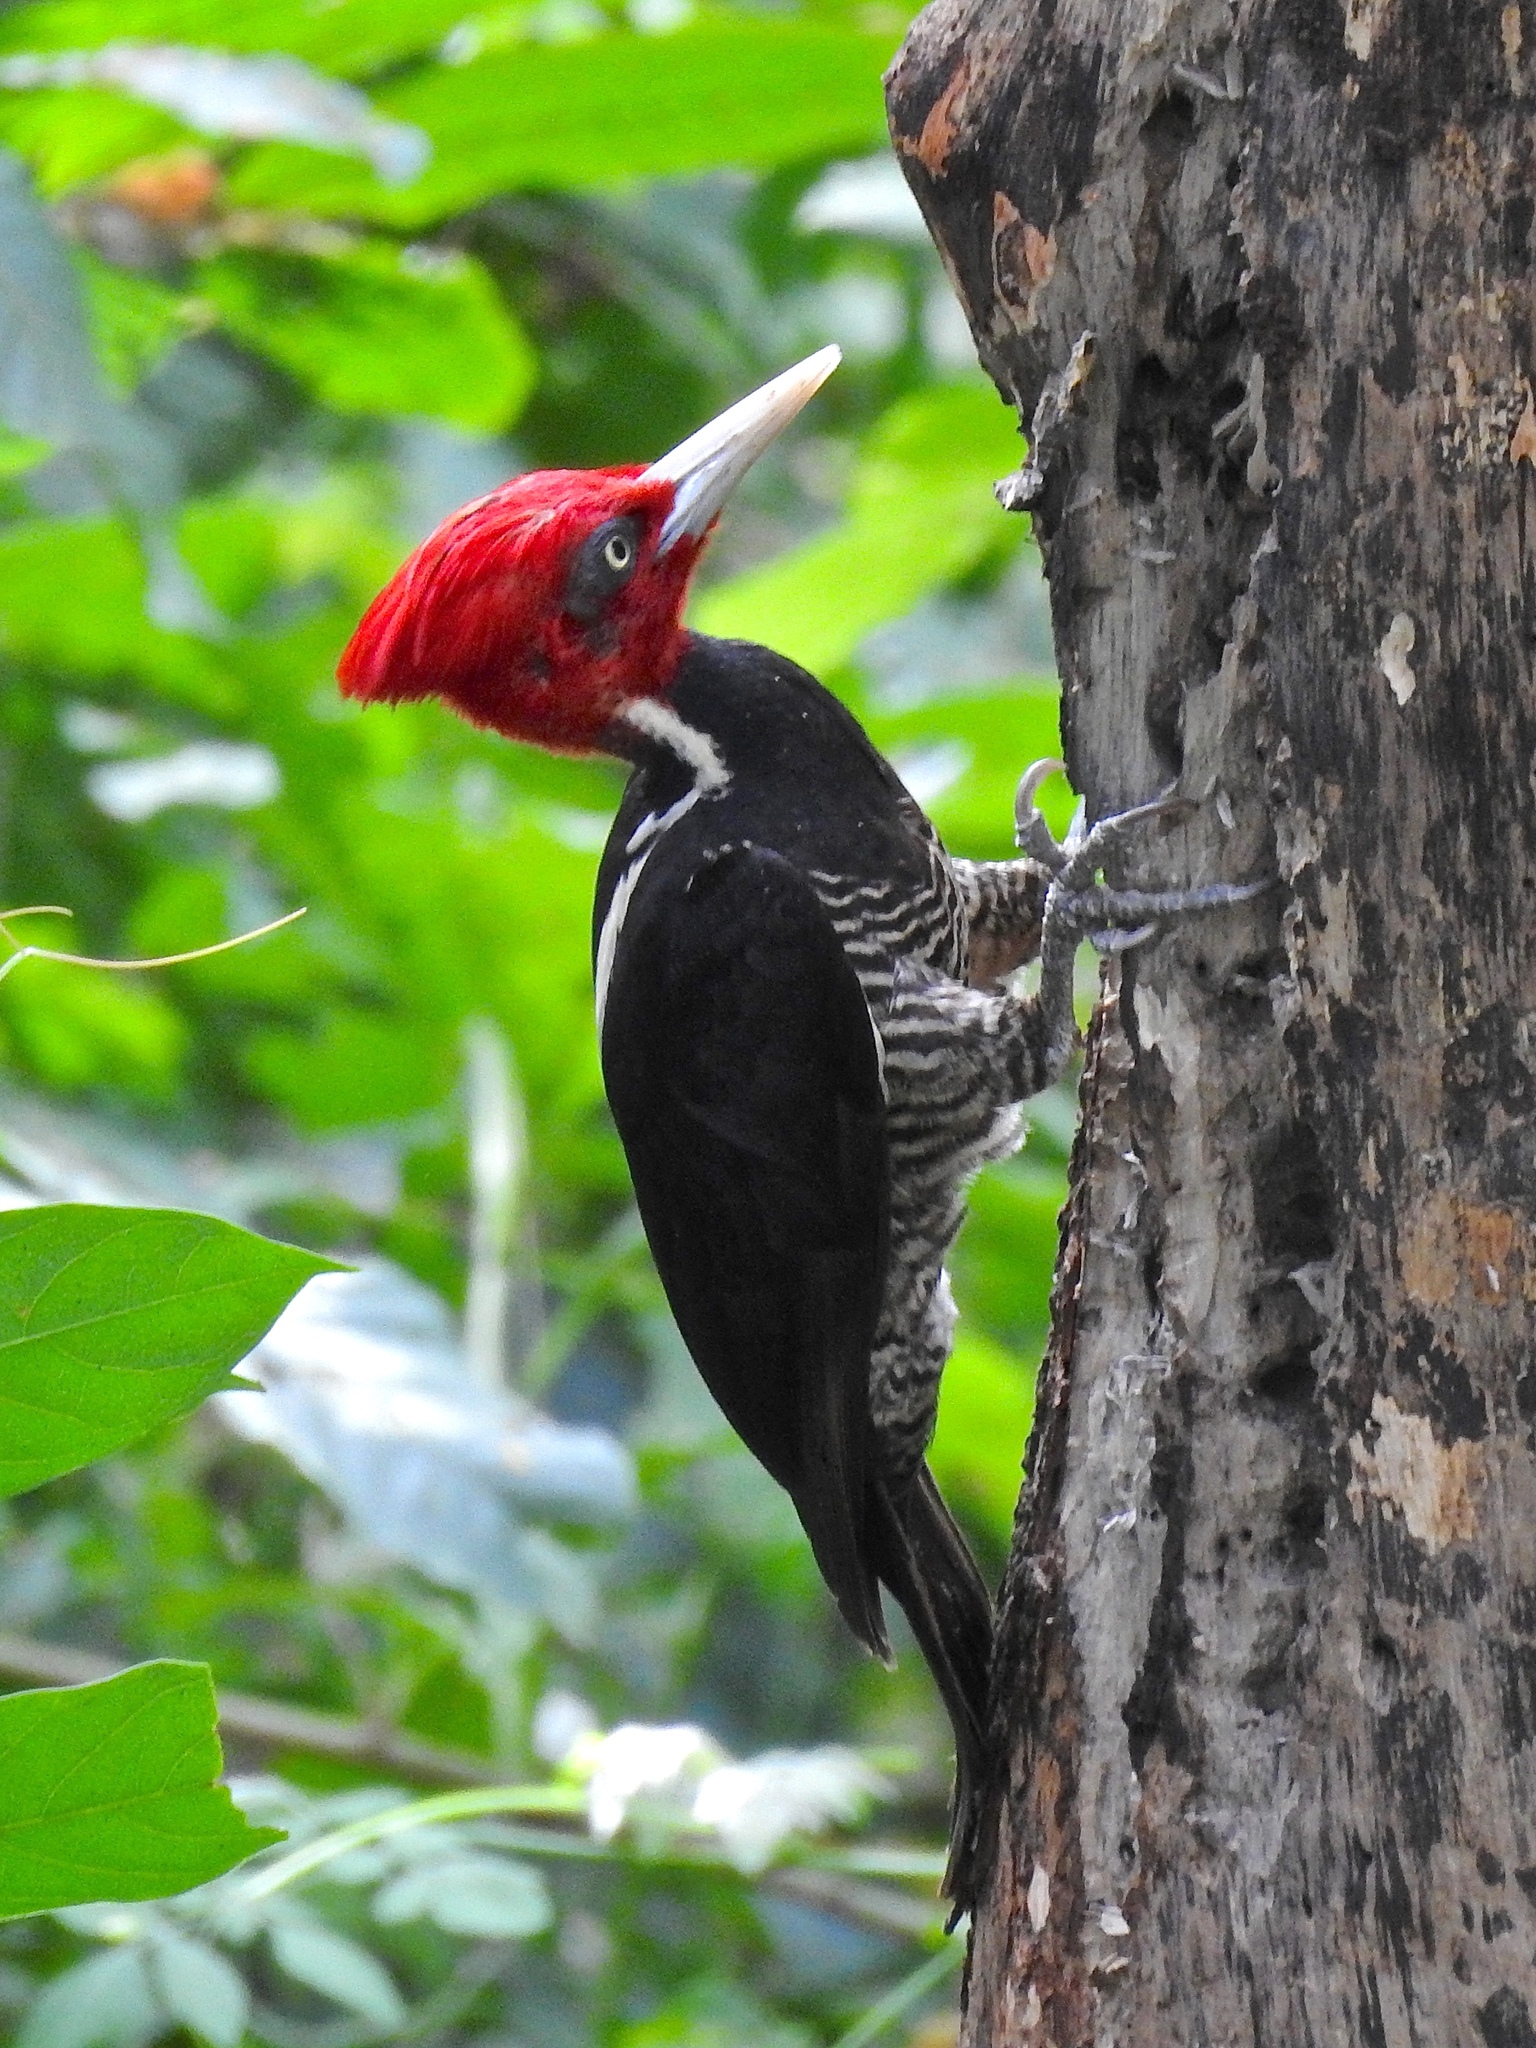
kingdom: Animalia
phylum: Chordata
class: Aves
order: Piciformes
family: Picidae
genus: Campephilus
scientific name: Campephilus guatemalensis
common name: Pale-billed woodpecker
